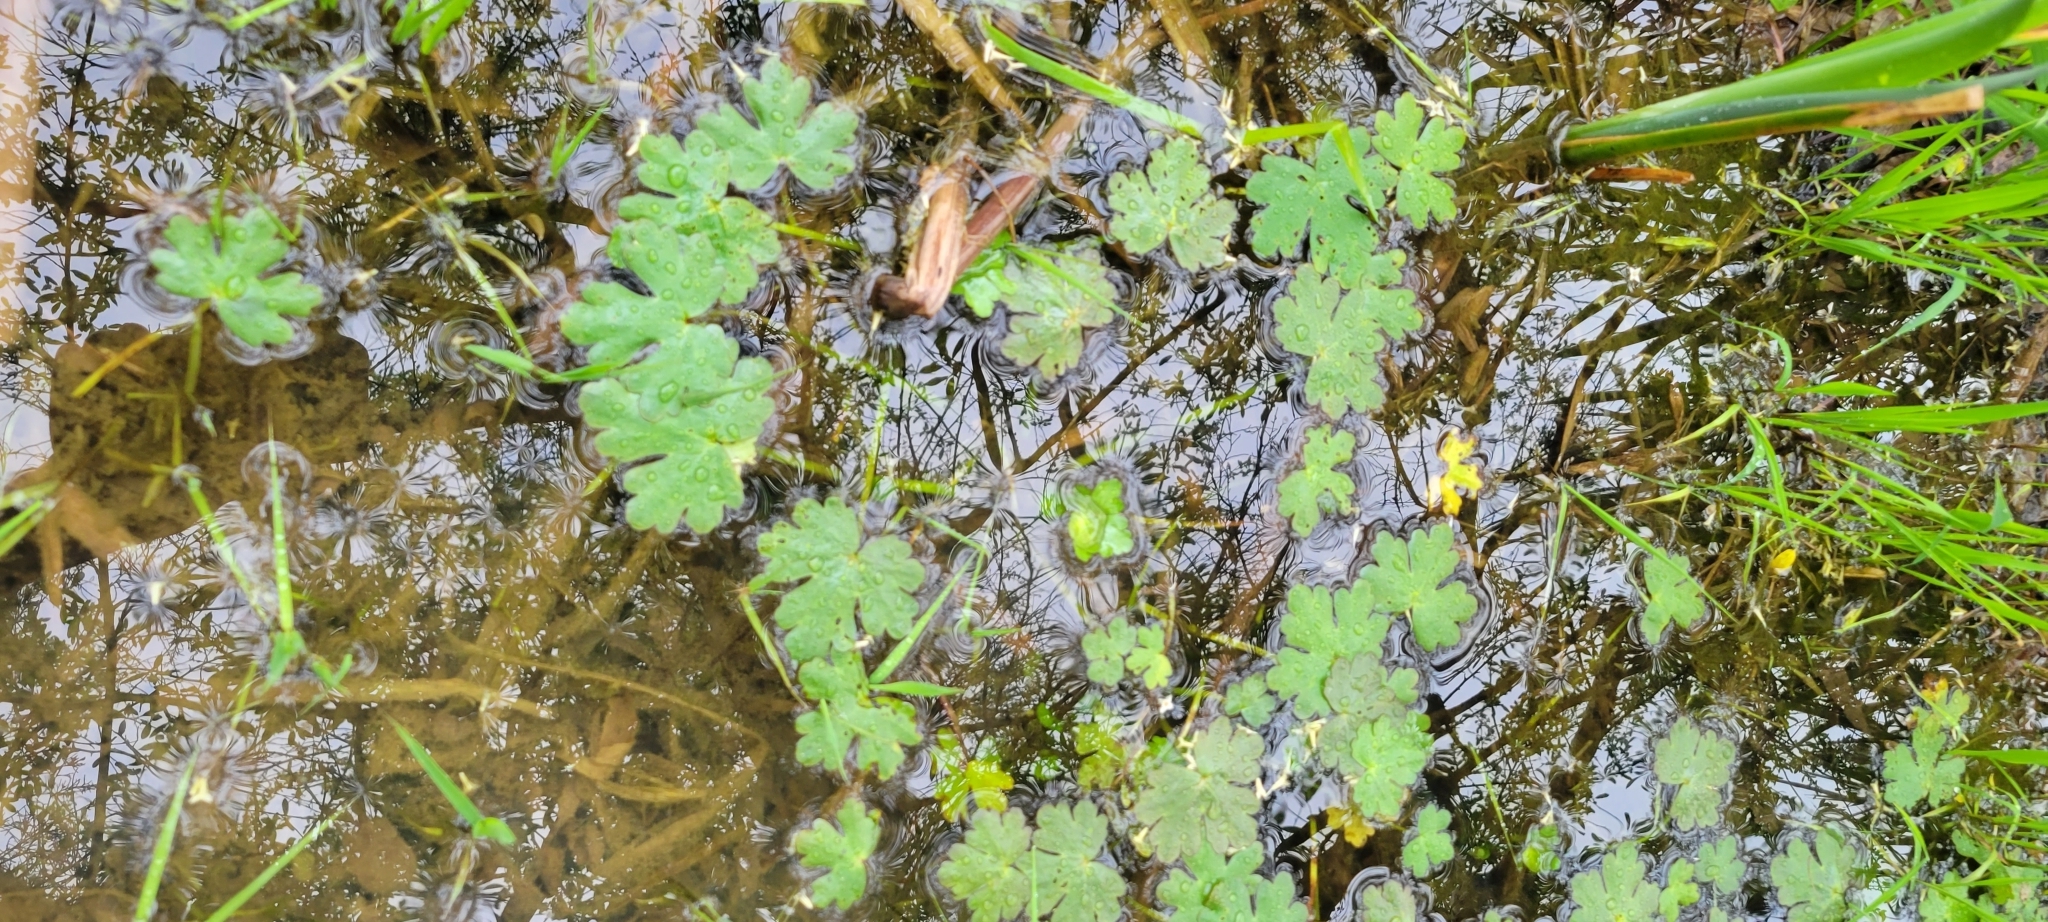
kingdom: Plantae
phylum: Tracheophyta
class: Magnoliopsida
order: Ranunculales
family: Ranunculaceae
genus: Ranunculus
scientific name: Ranunculus sceleratus
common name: Celery-leaved buttercup
